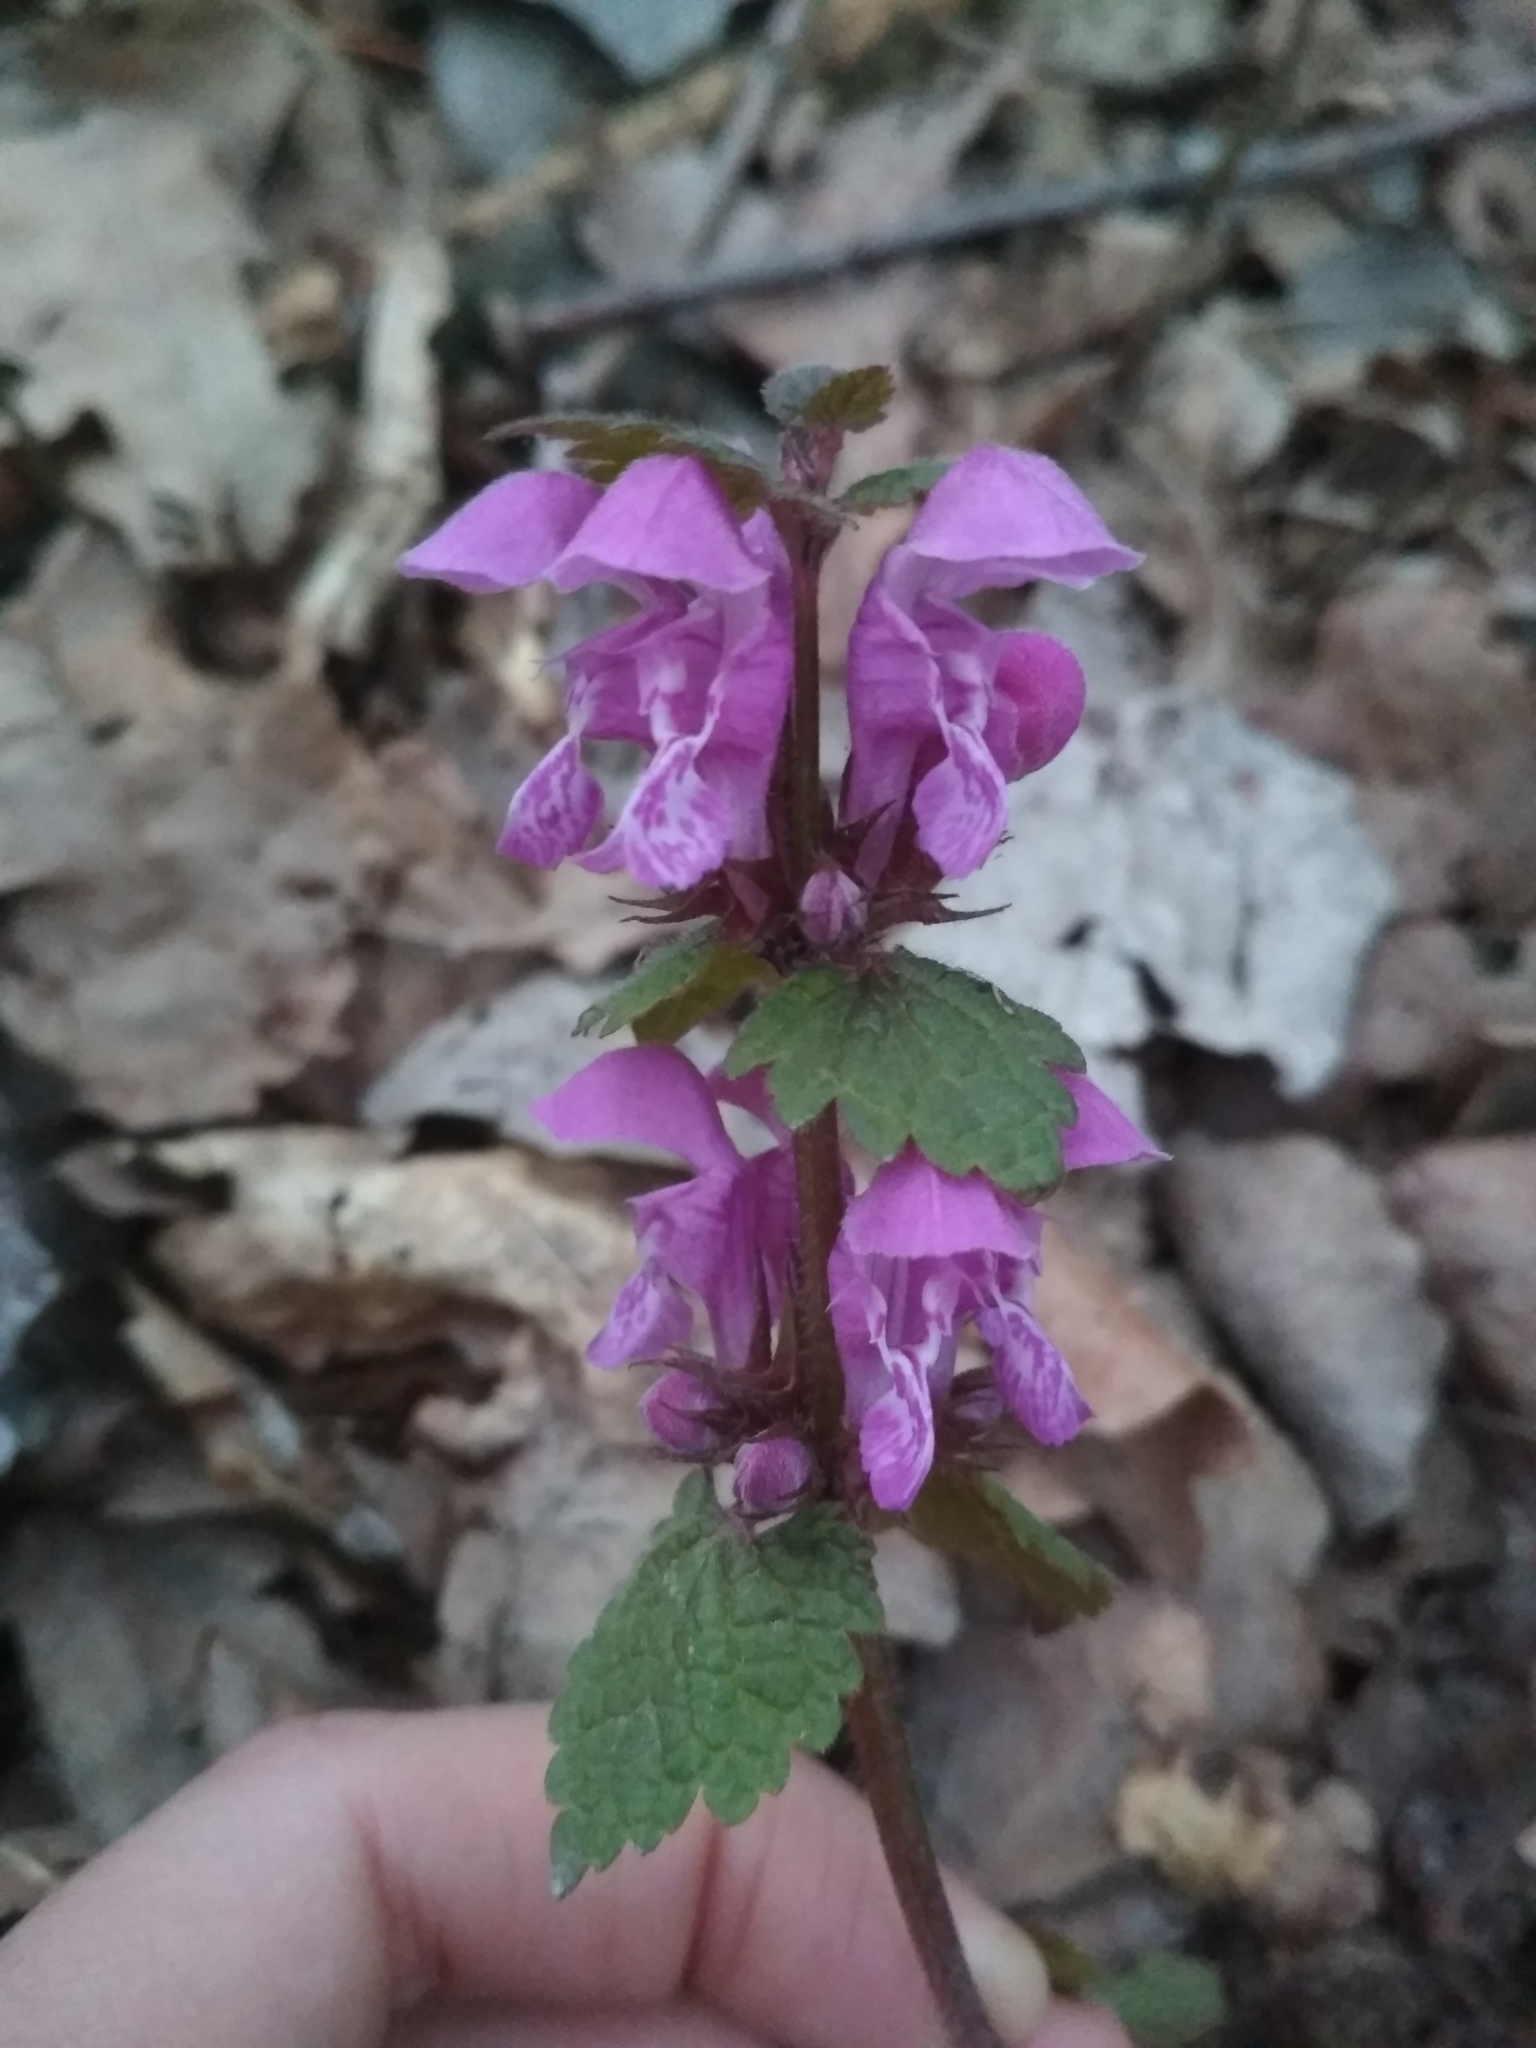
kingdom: Plantae
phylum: Tracheophyta
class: Magnoliopsida
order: Lamiales
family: Lamiaceae
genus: Lamium
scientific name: Lamium maculatum
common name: Spotted dead-nettle
